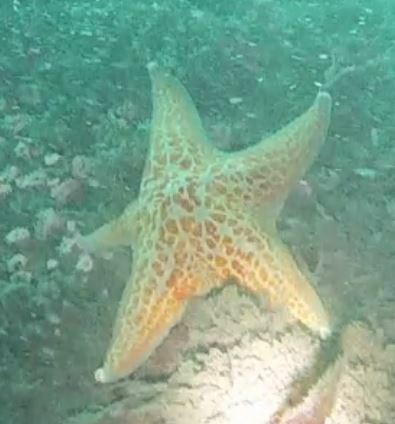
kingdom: Animalia
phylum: Echinodermata
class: Asteroidea
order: Valvatida
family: Asteropseidae
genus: Dermasterias
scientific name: Dermasterias imbricata
